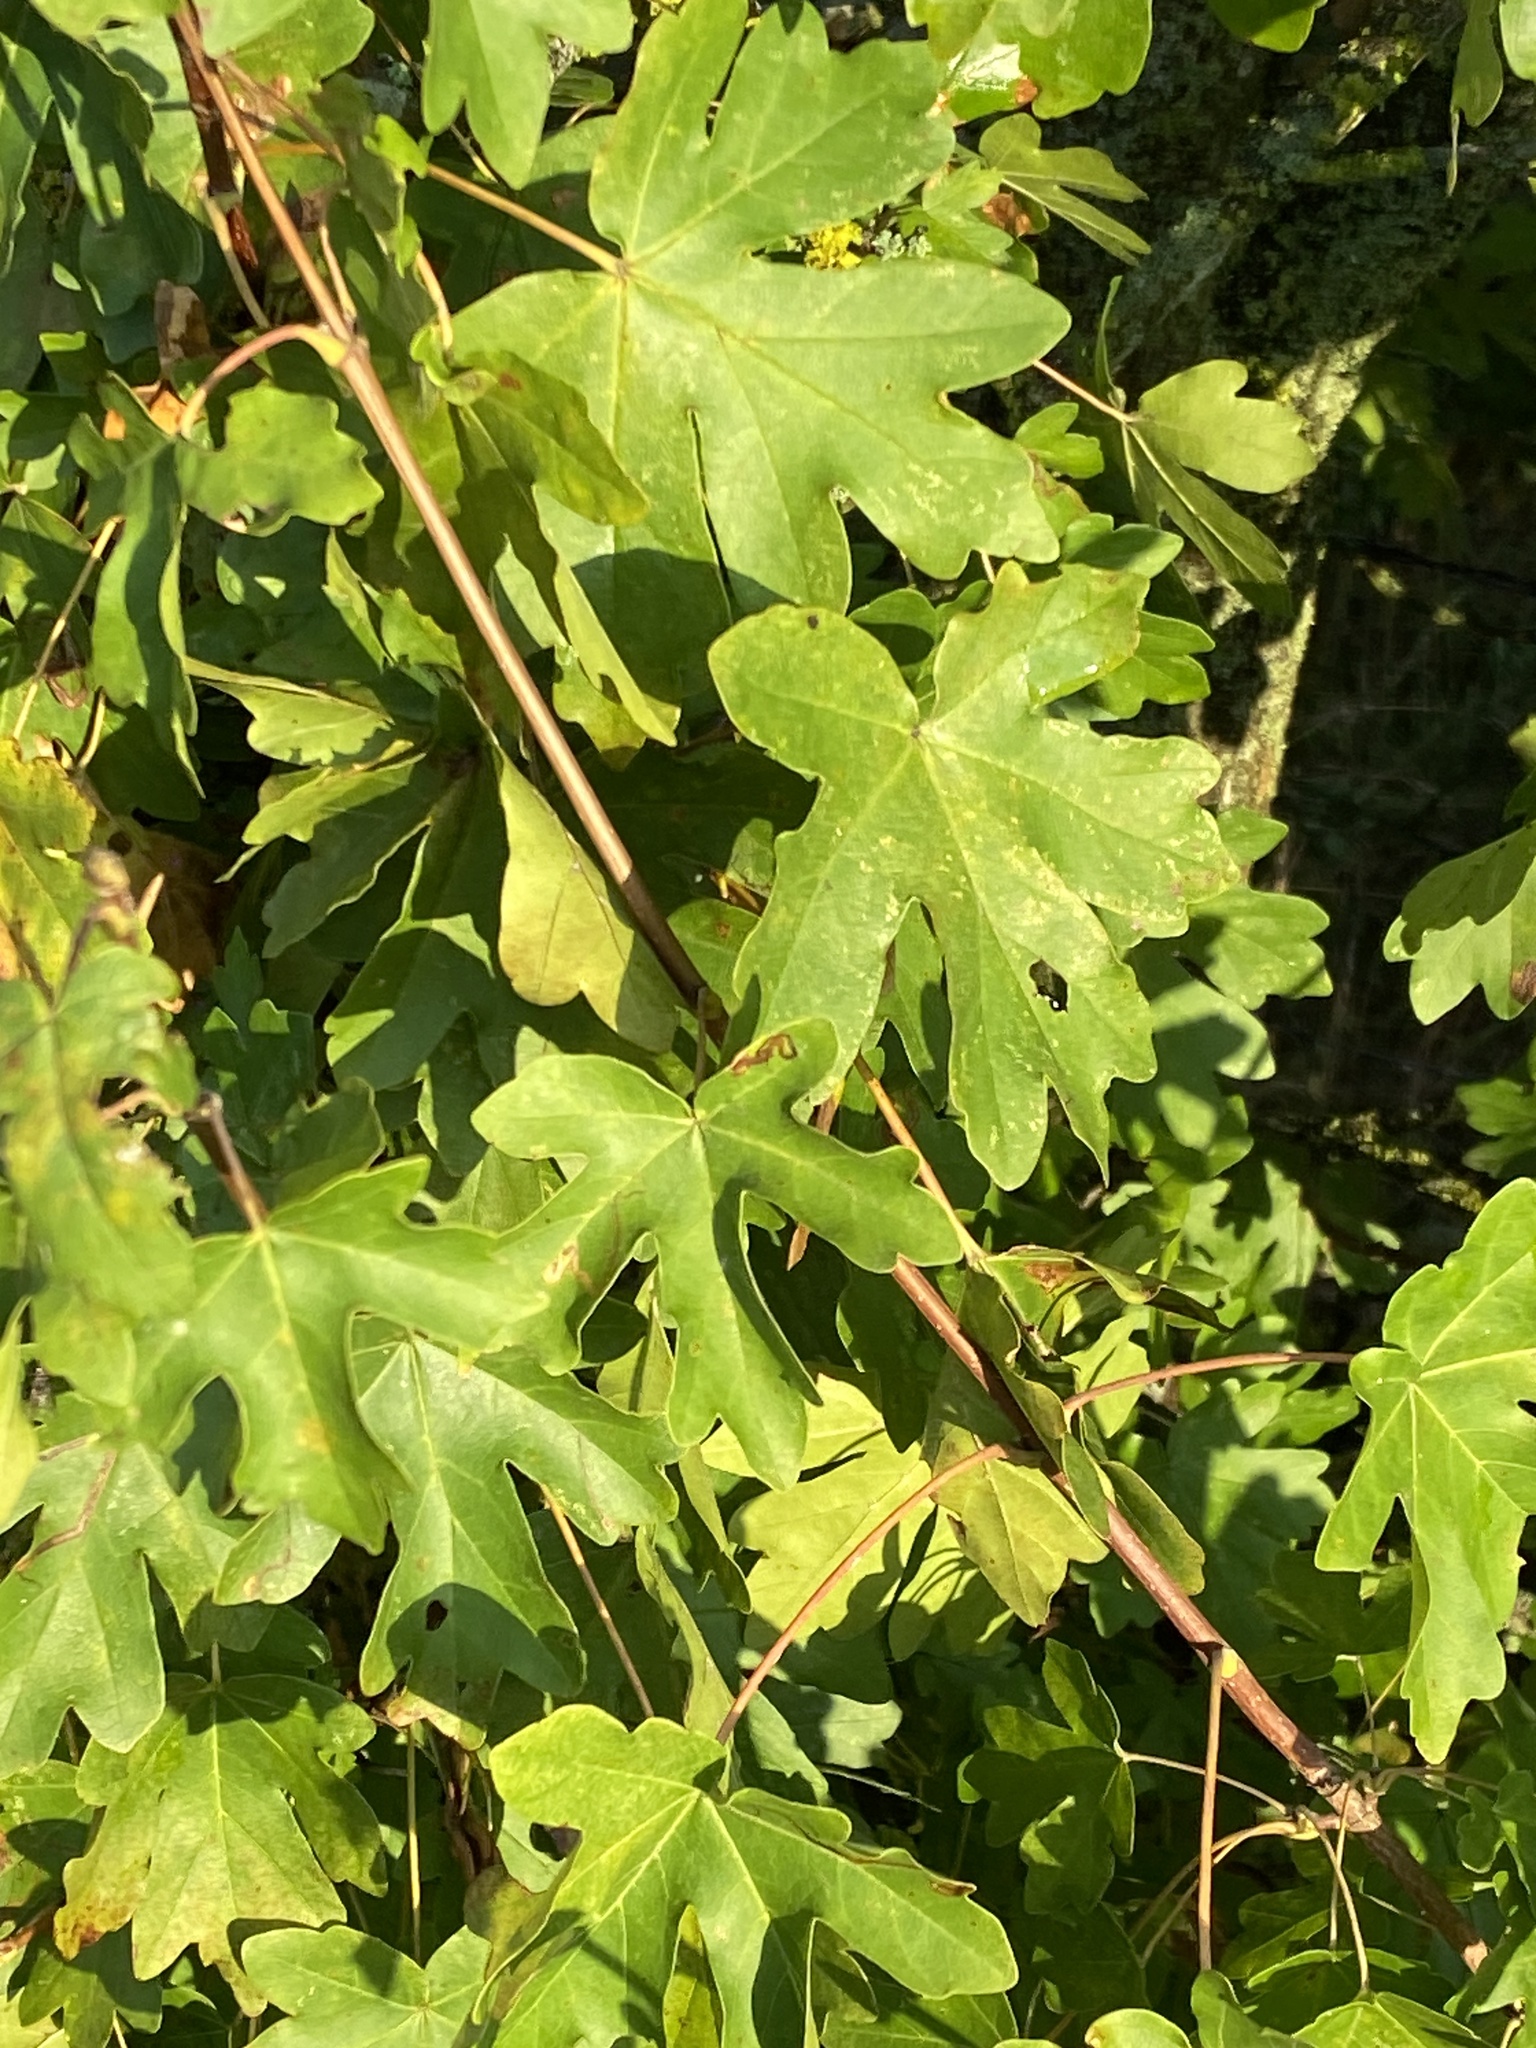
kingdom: Plantae
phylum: Tracheophyta
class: Magnoliopsida
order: Sapindales
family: Sapindaceae
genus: Acer
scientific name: Acer campestre
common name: Field maple
